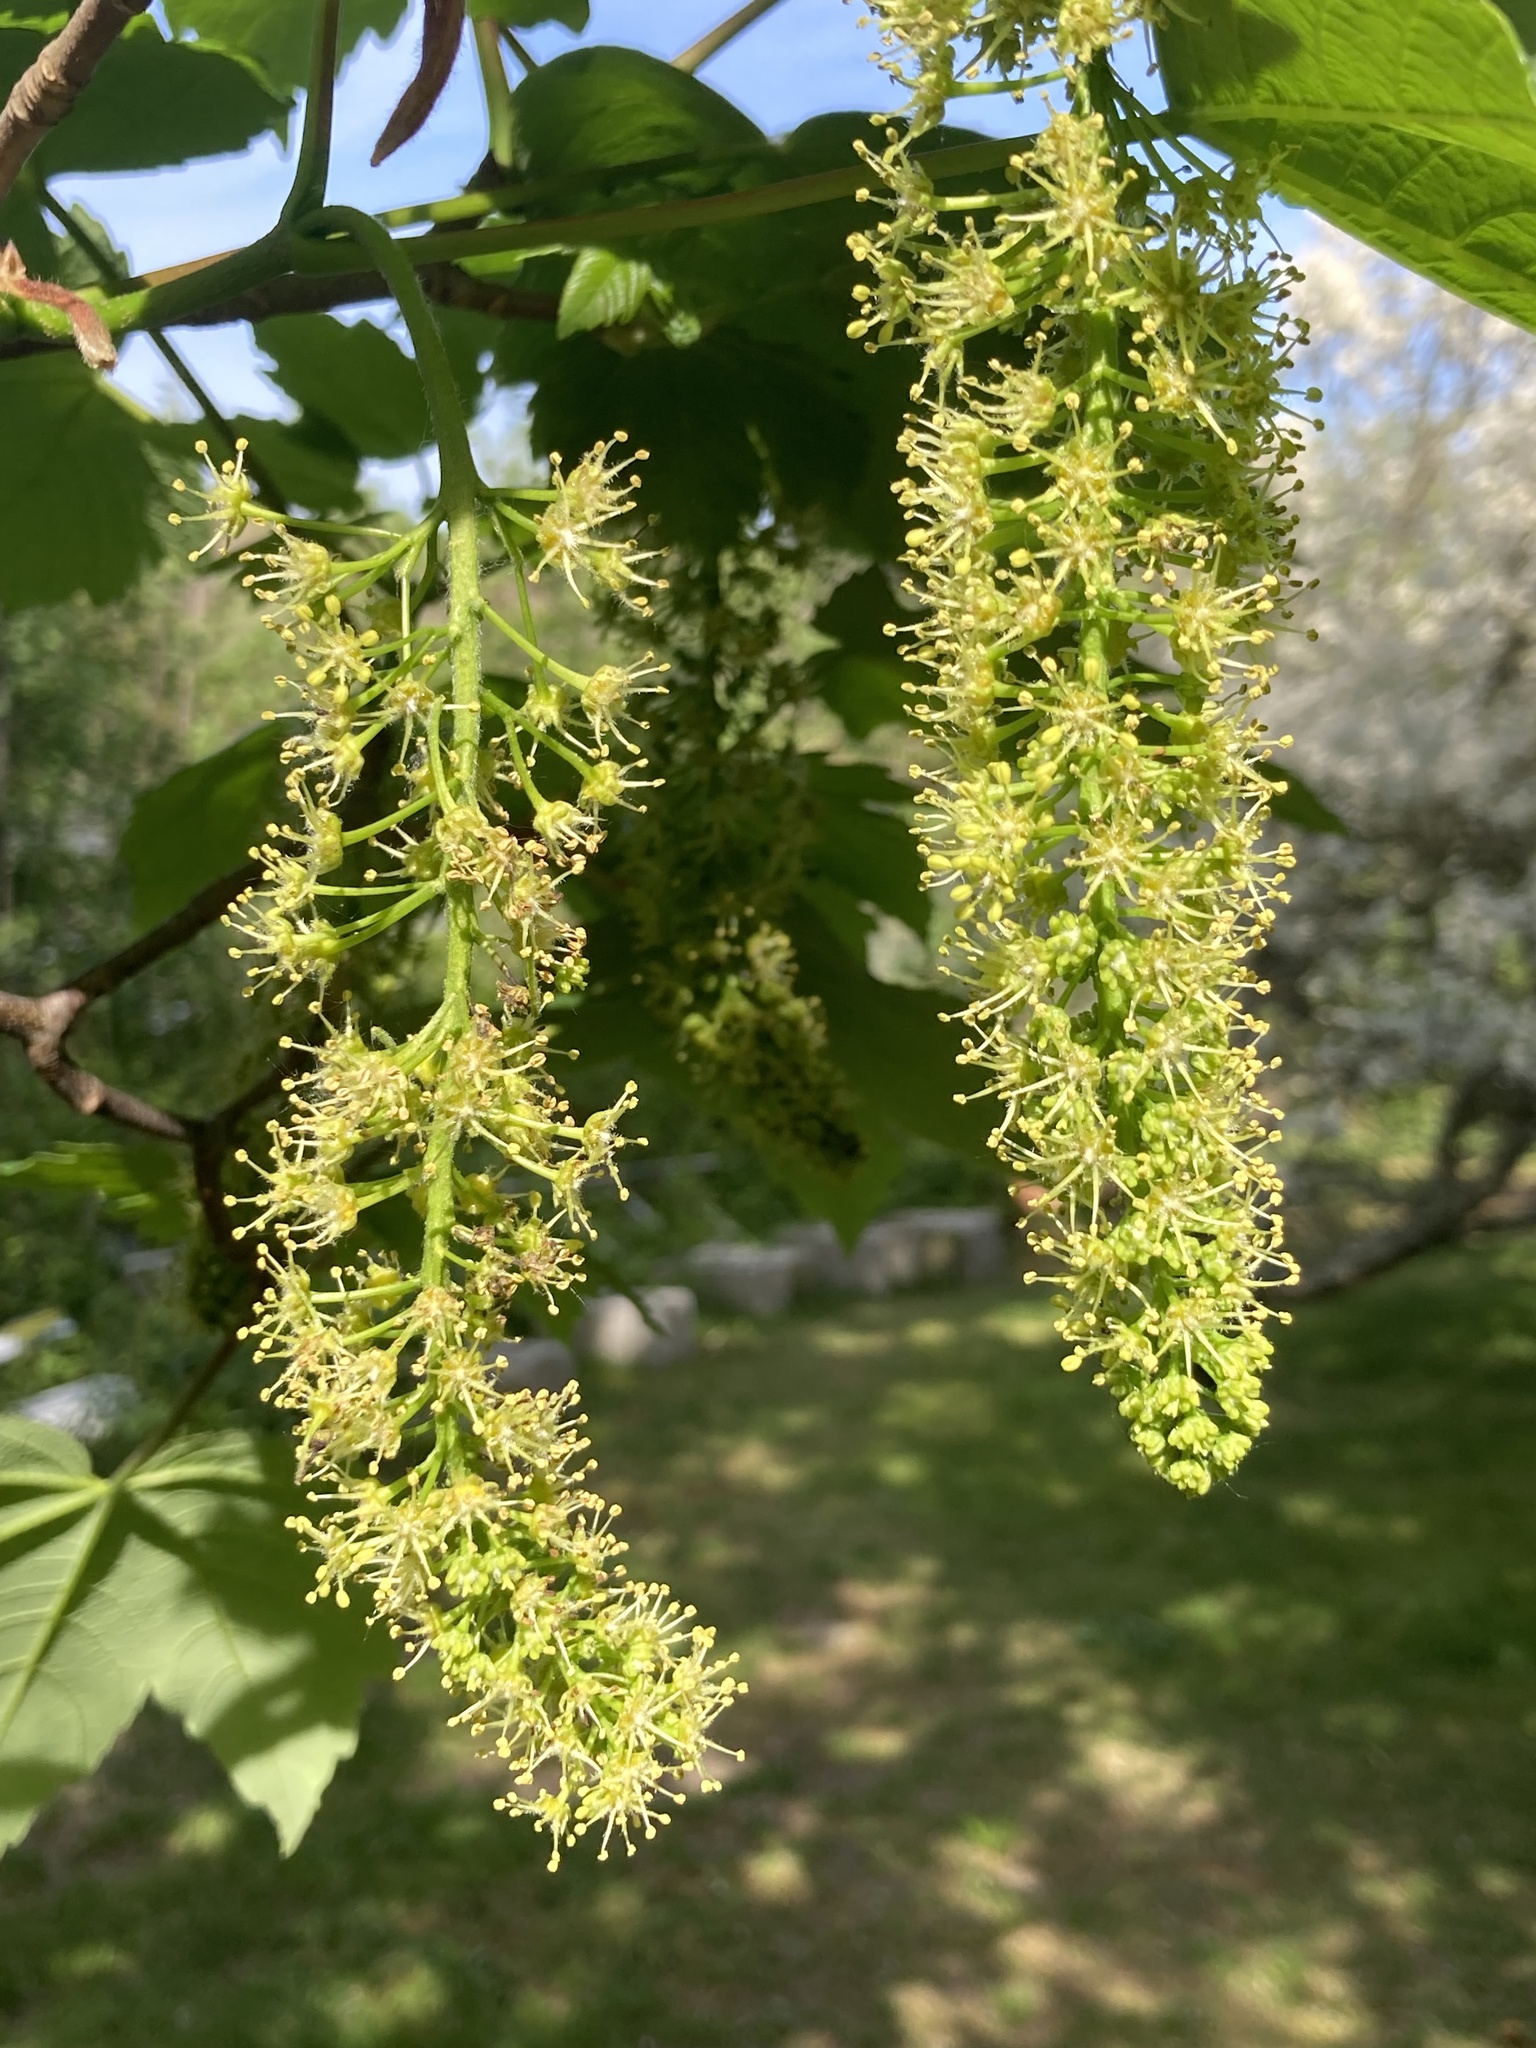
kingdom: Plantae
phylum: Tracheophyta
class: Magnoliopsida
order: Sapindales
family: Sapindaceae
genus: Acer
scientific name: Acer pseudoplatanus
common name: Sycamore
